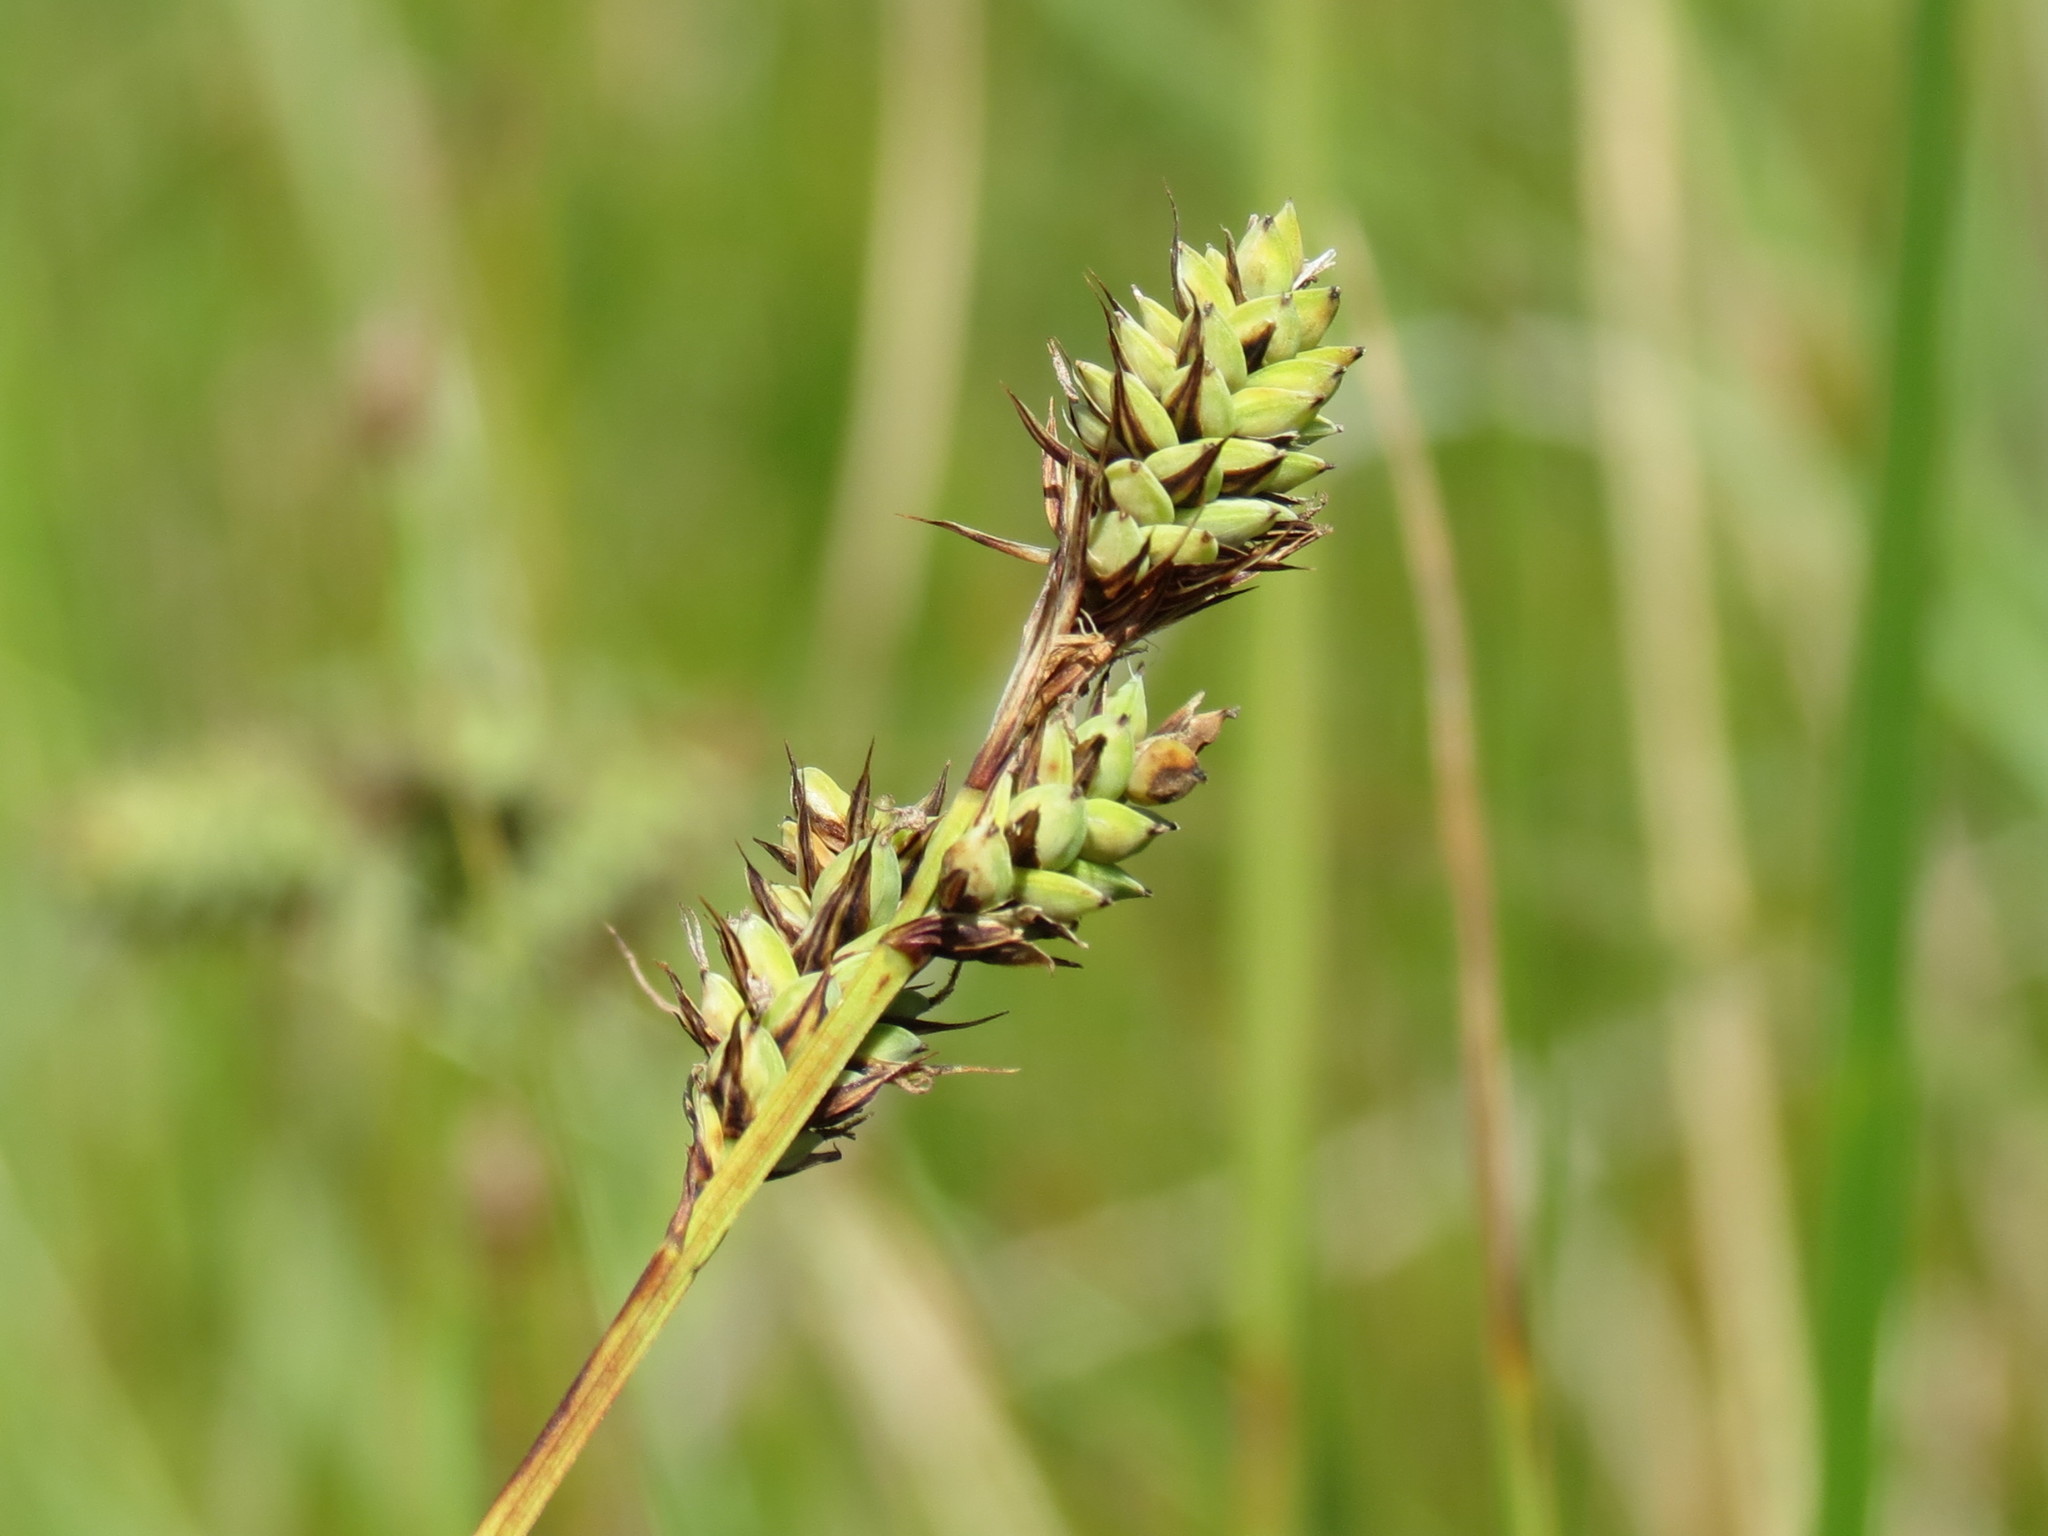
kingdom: Plantae
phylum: Tracheophyta
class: Liliopsida
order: Poales
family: Cyperaceae
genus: Carex
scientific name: Carex buxbaumii
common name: Club sedge
